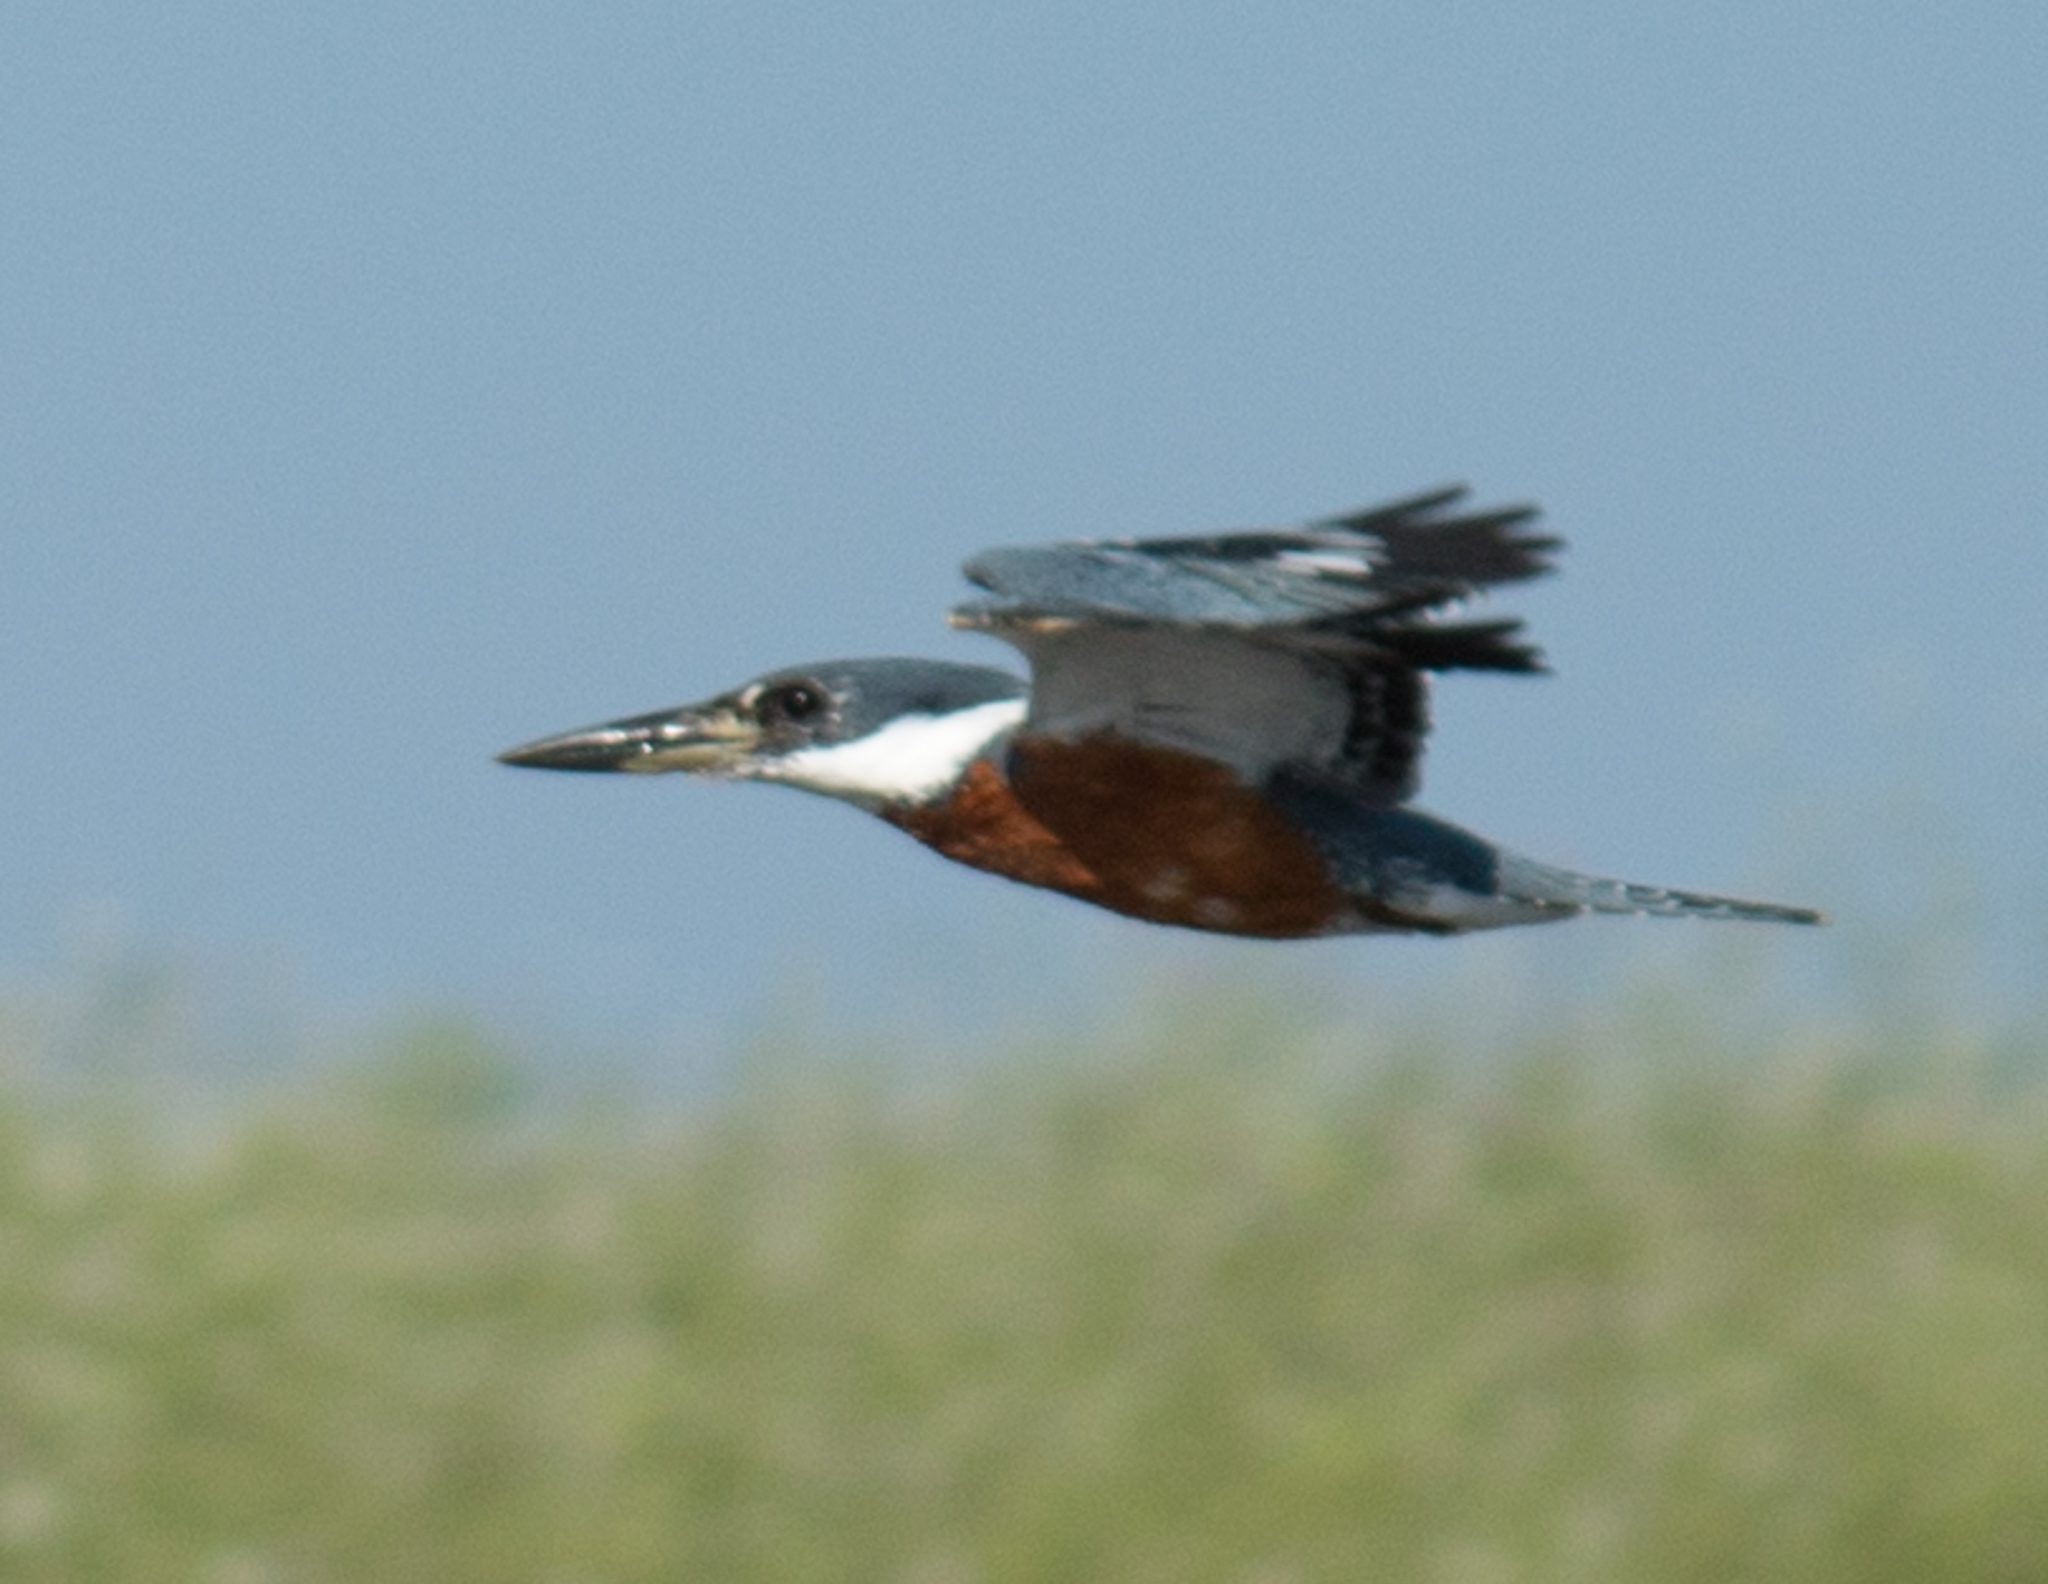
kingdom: Animalia
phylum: Chordata
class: Aves
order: Coraciiformes
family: Alcedinidae
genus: Megaceryle
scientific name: Megaceryle torquata
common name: Ringed kingfisher
